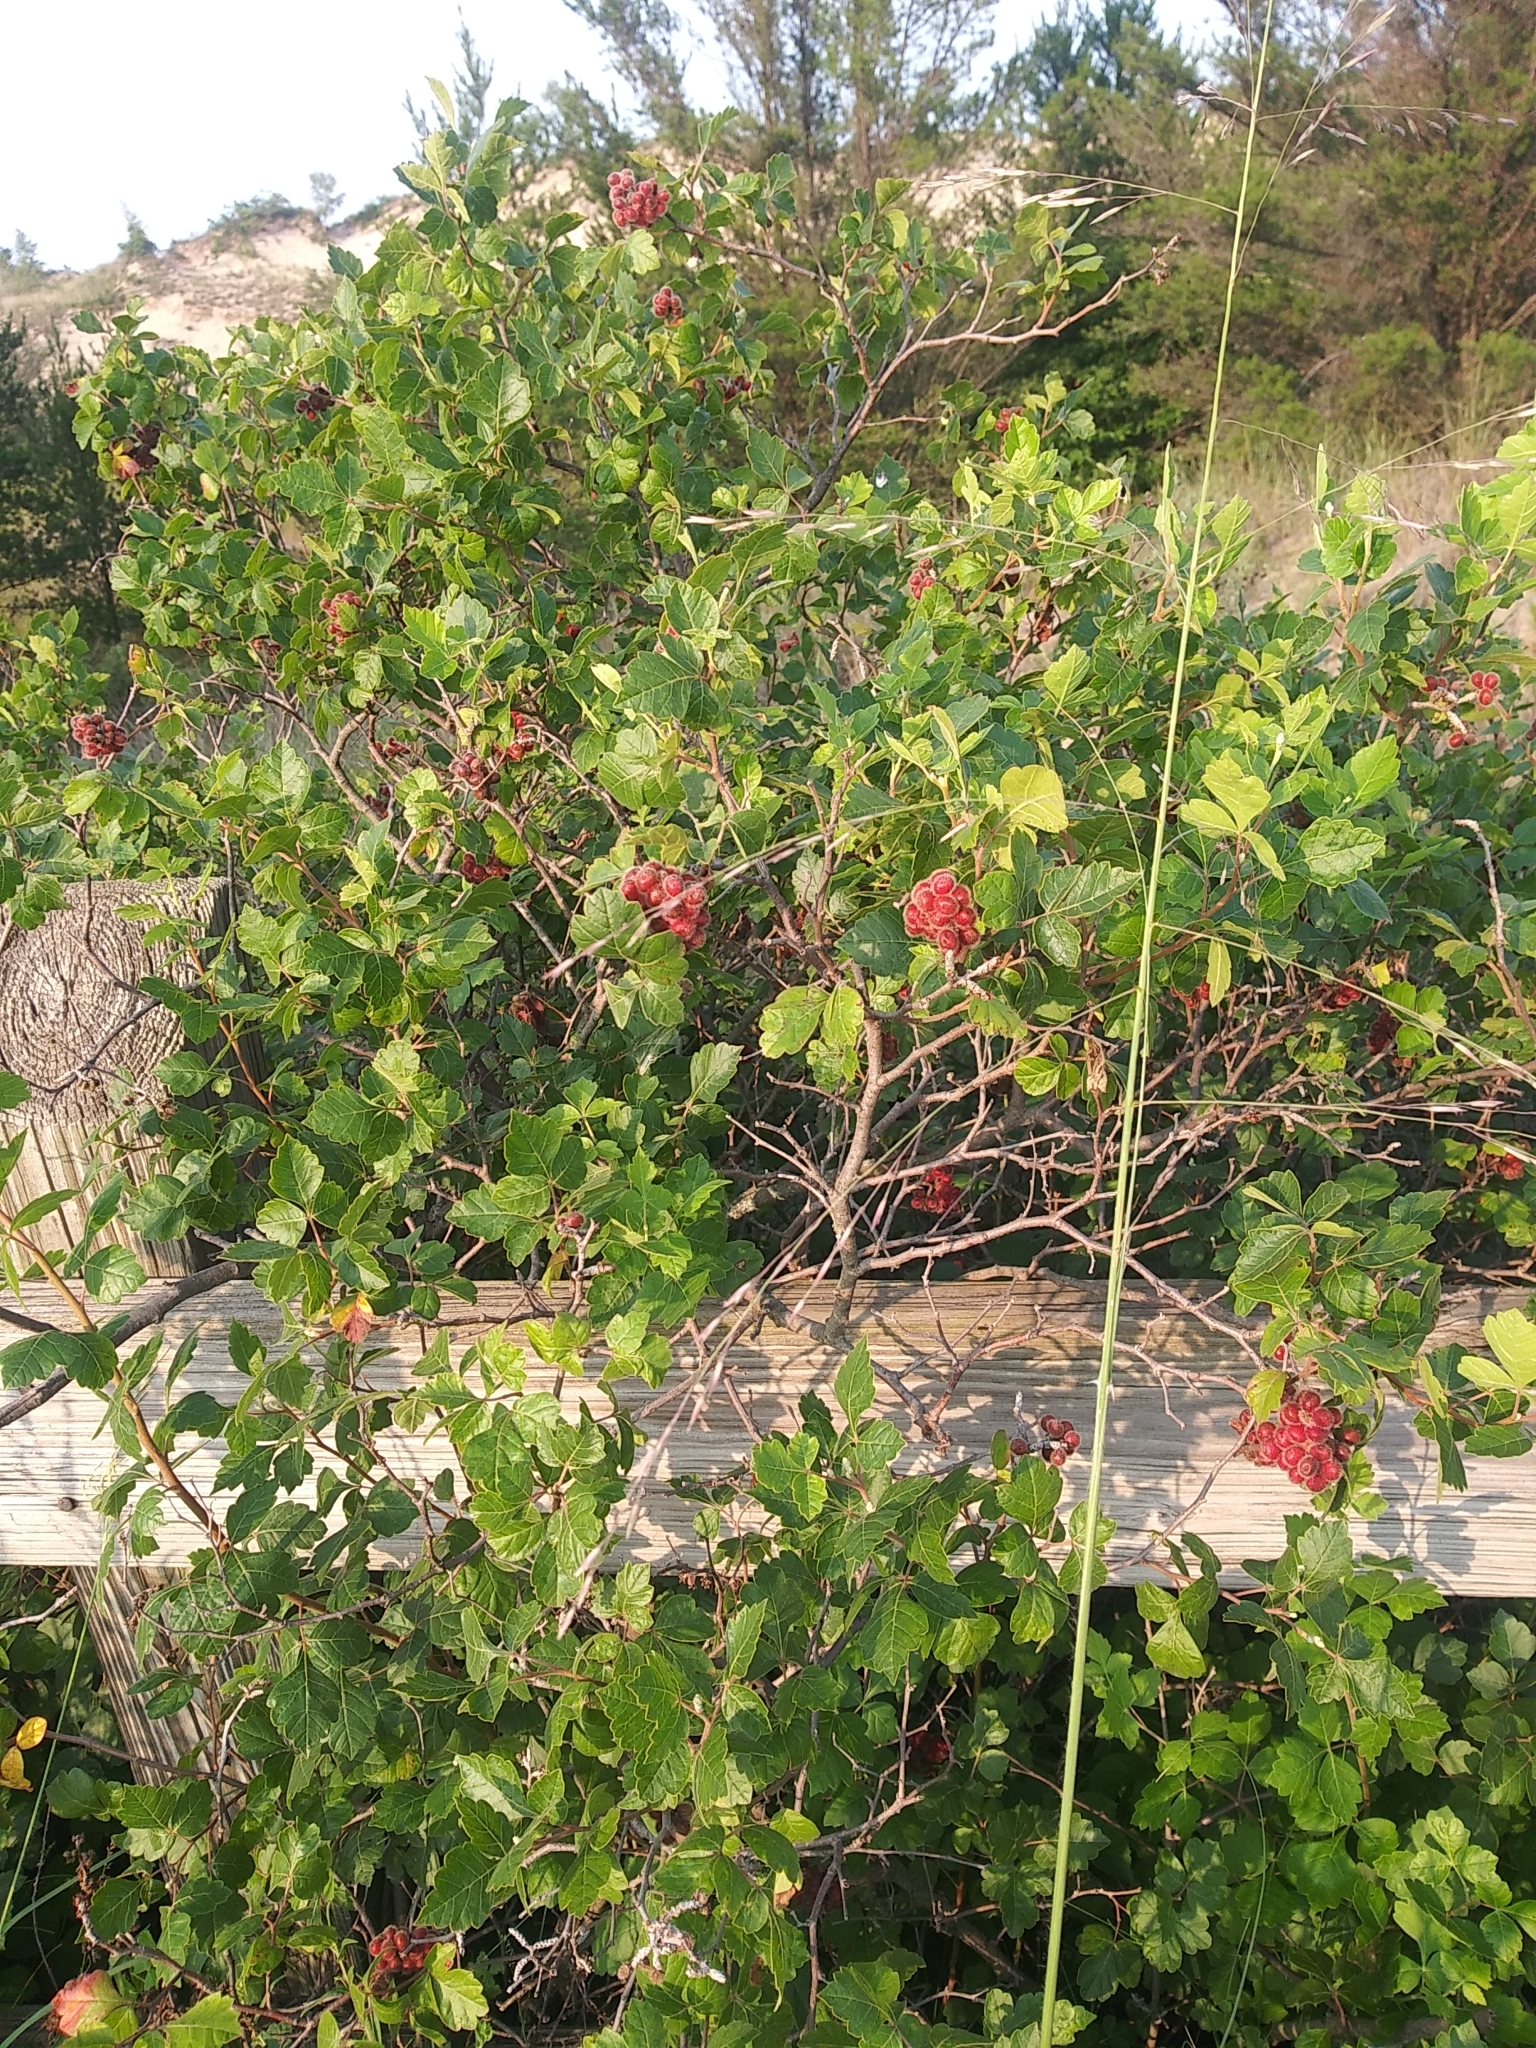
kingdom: Plantae
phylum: Tracheophyta
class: Magnoliopsida
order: Sapindales
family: Anacardiaceae
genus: Rhus
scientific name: Rhus aromatica
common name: Aromatic sumac
